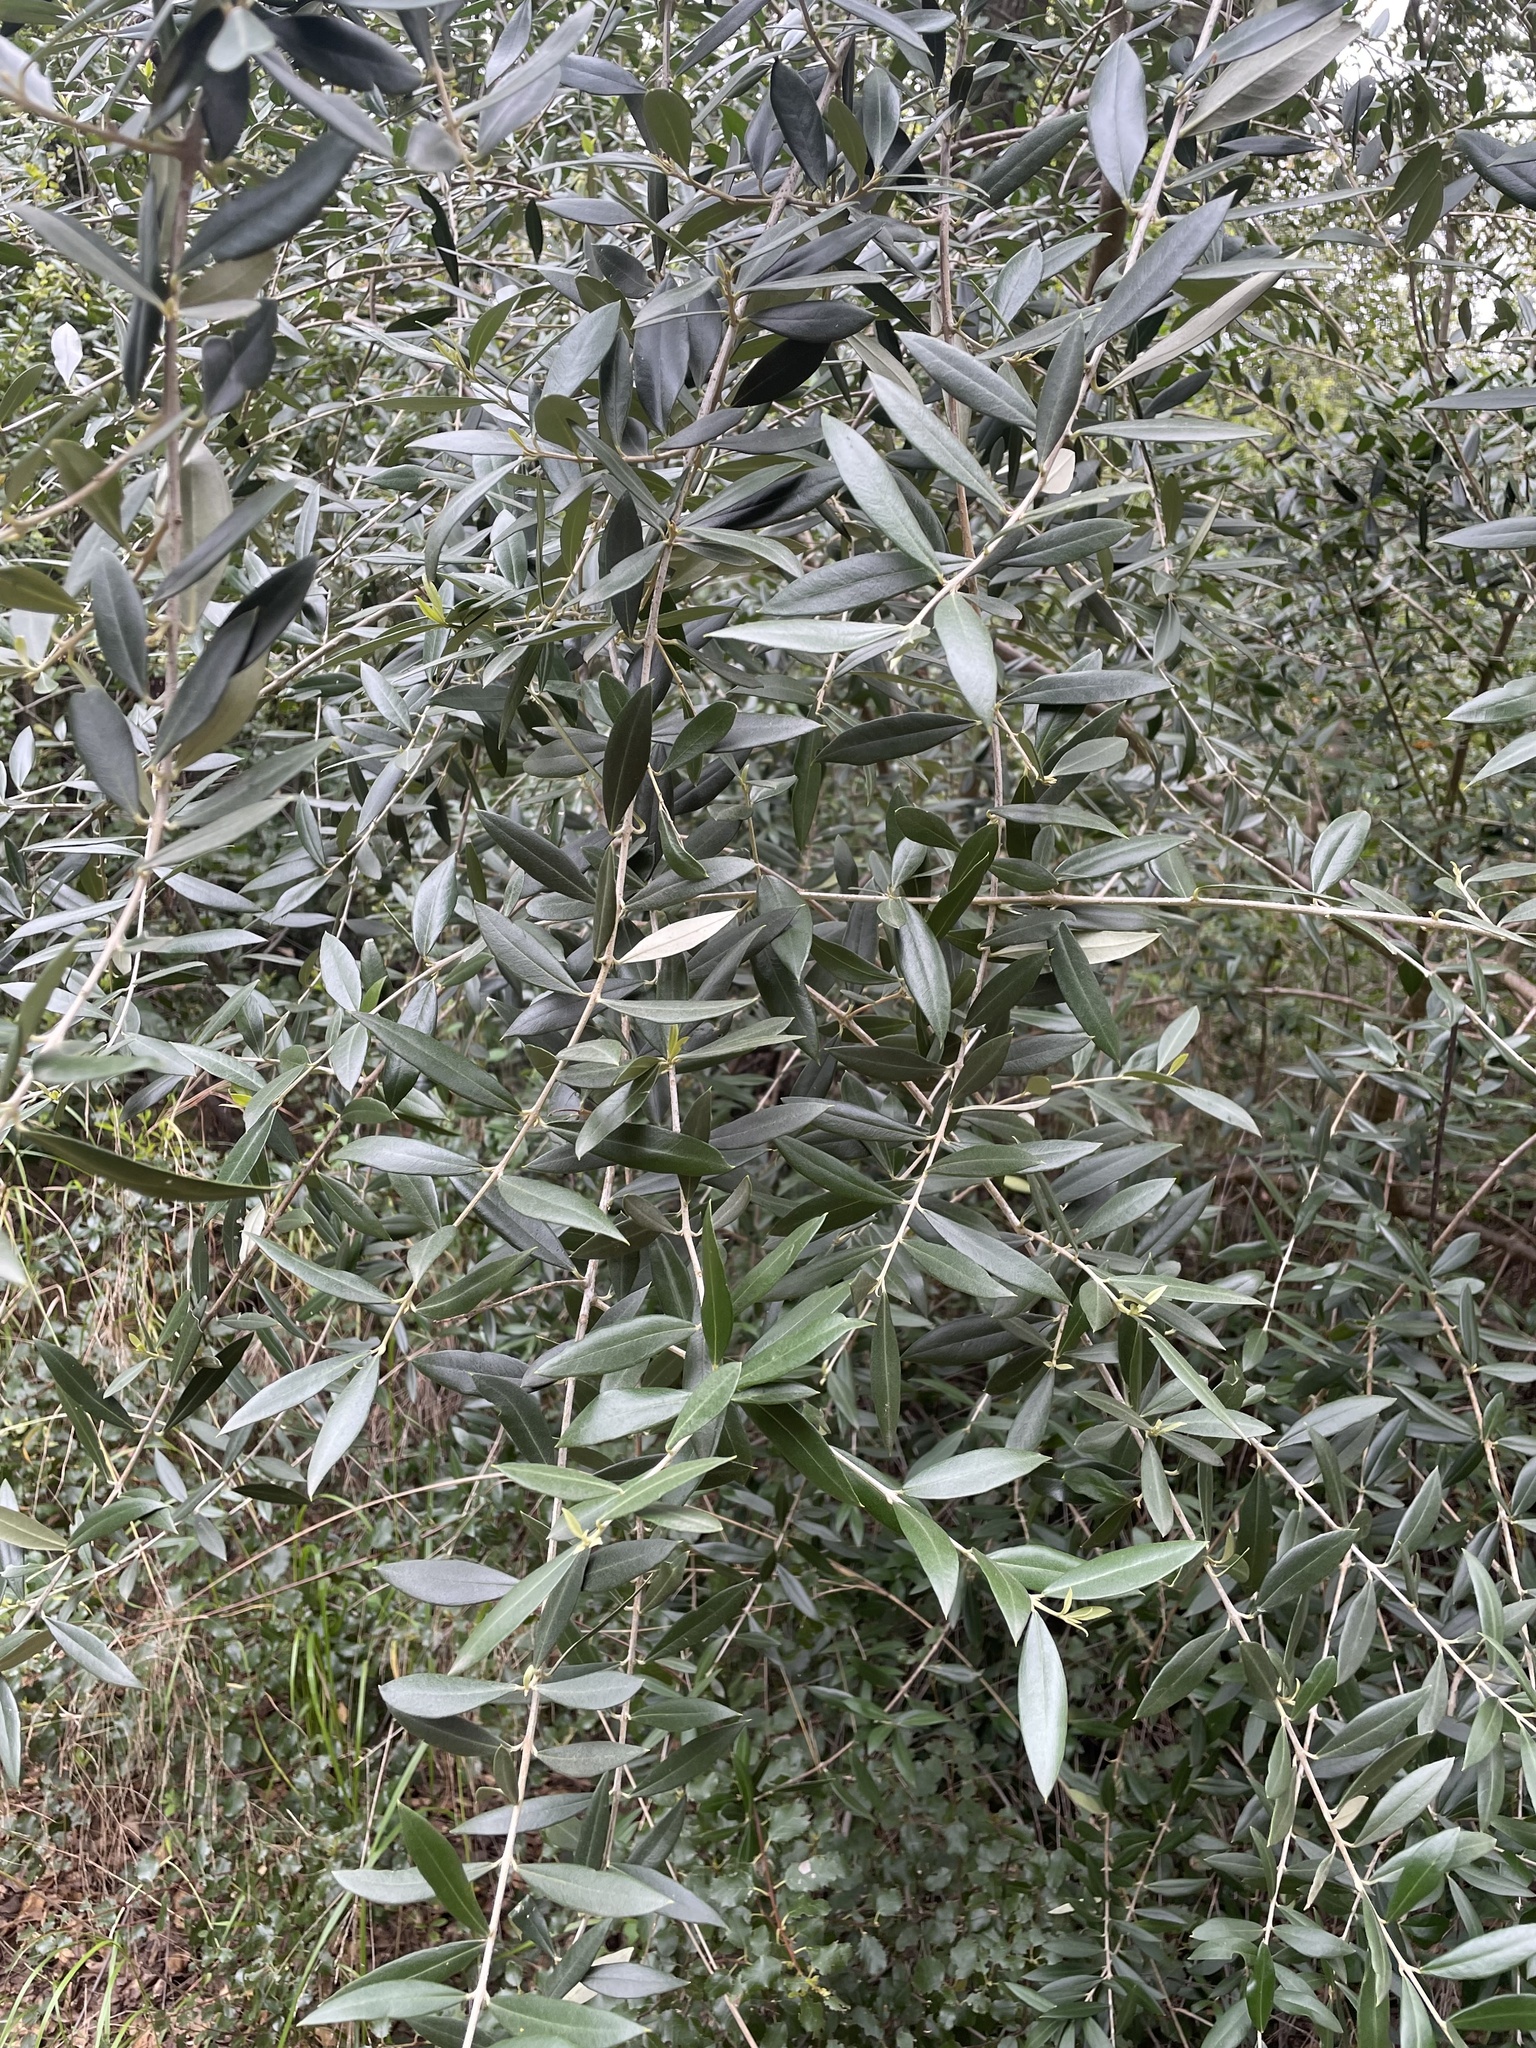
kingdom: Plantae
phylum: Tracheophyta
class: Magnoliopsida
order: Lamiales
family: Oleaceae
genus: Olea
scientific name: Olea europaea
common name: Olive
